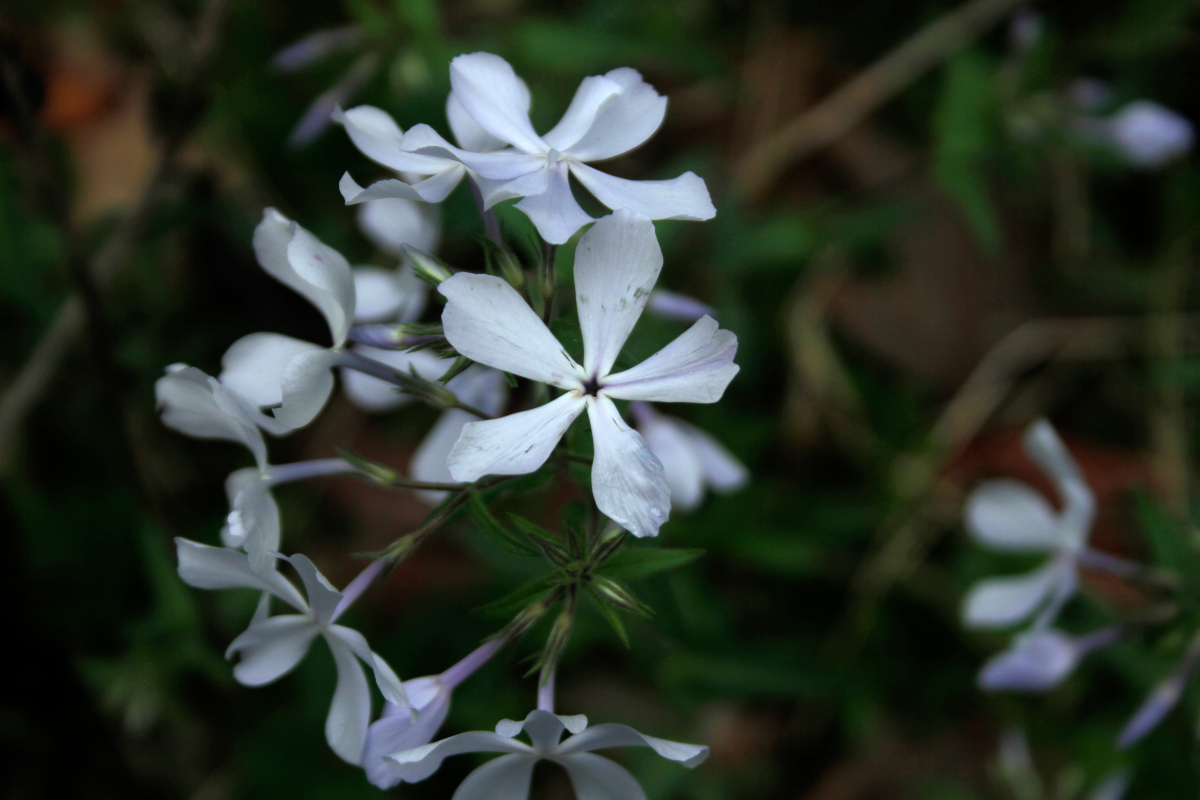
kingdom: Plantae
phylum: Tracheophyta
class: Magnoliopsida
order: Ericales
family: Polemoniaceae
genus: Phlox
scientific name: Phlox divaricata
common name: Blue phlox
